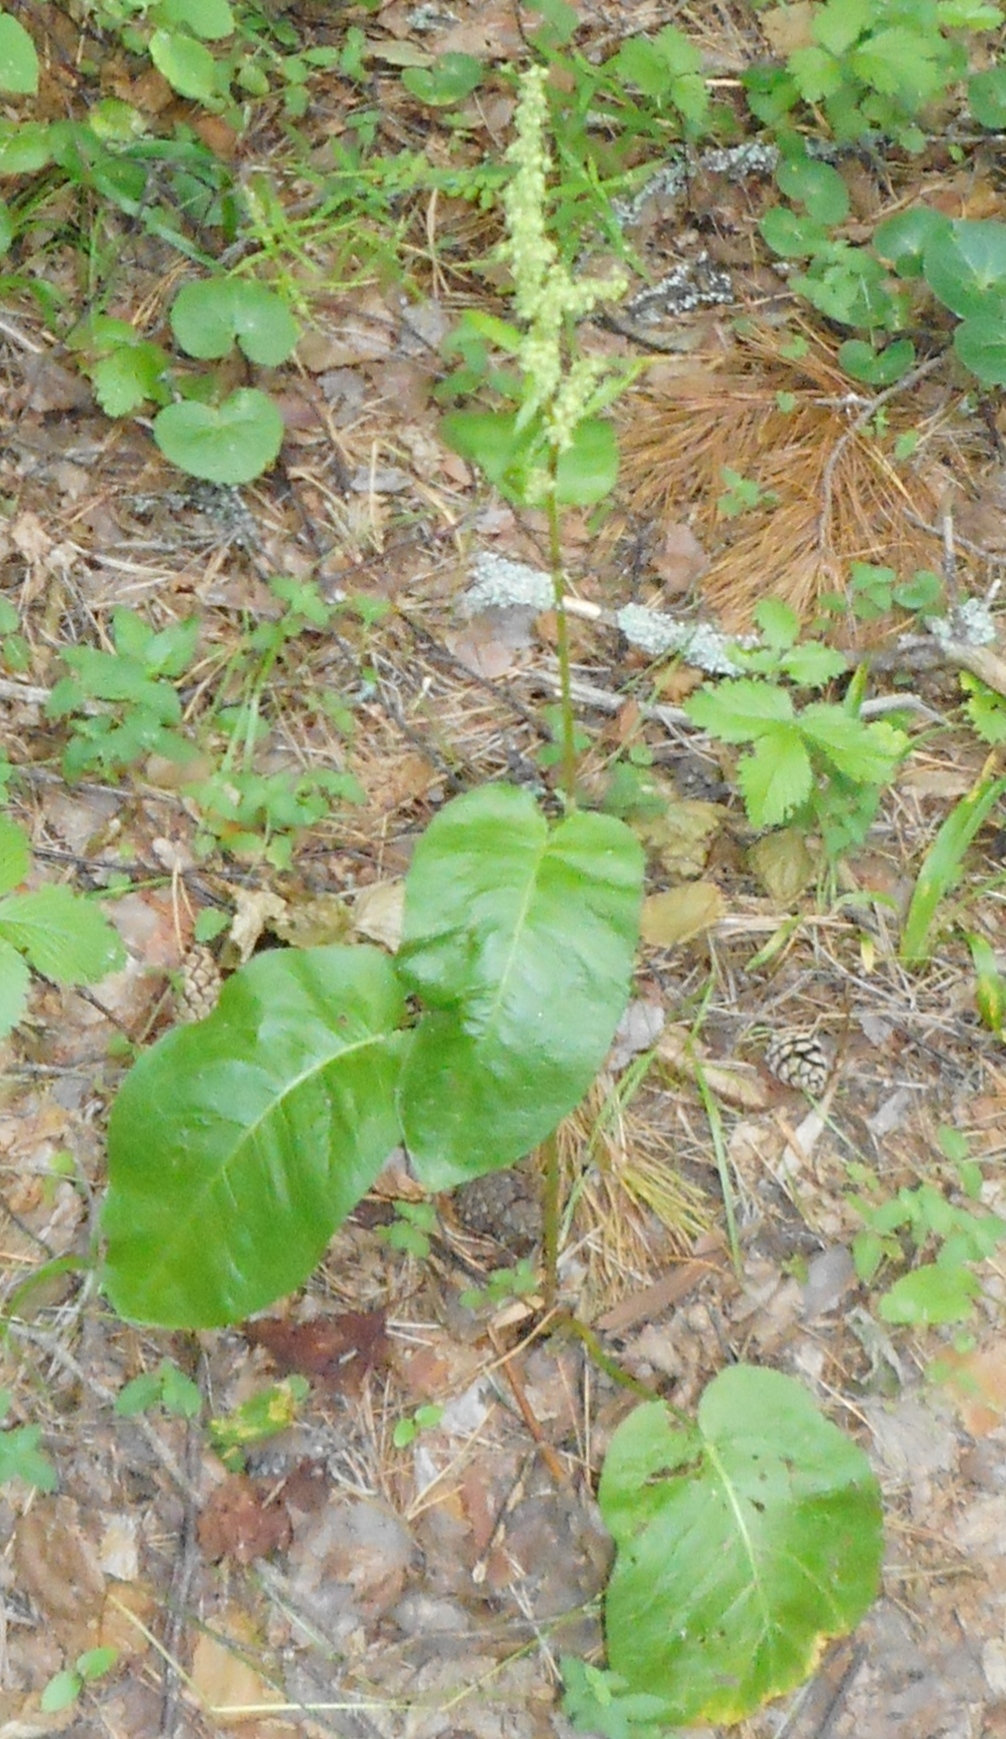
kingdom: Plantae
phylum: Tracheophyta
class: Magnoliopsida
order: Caryophyllales
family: Polygonaceae
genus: Rumex
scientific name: Rumex obtusifolius
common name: Bitter dock
